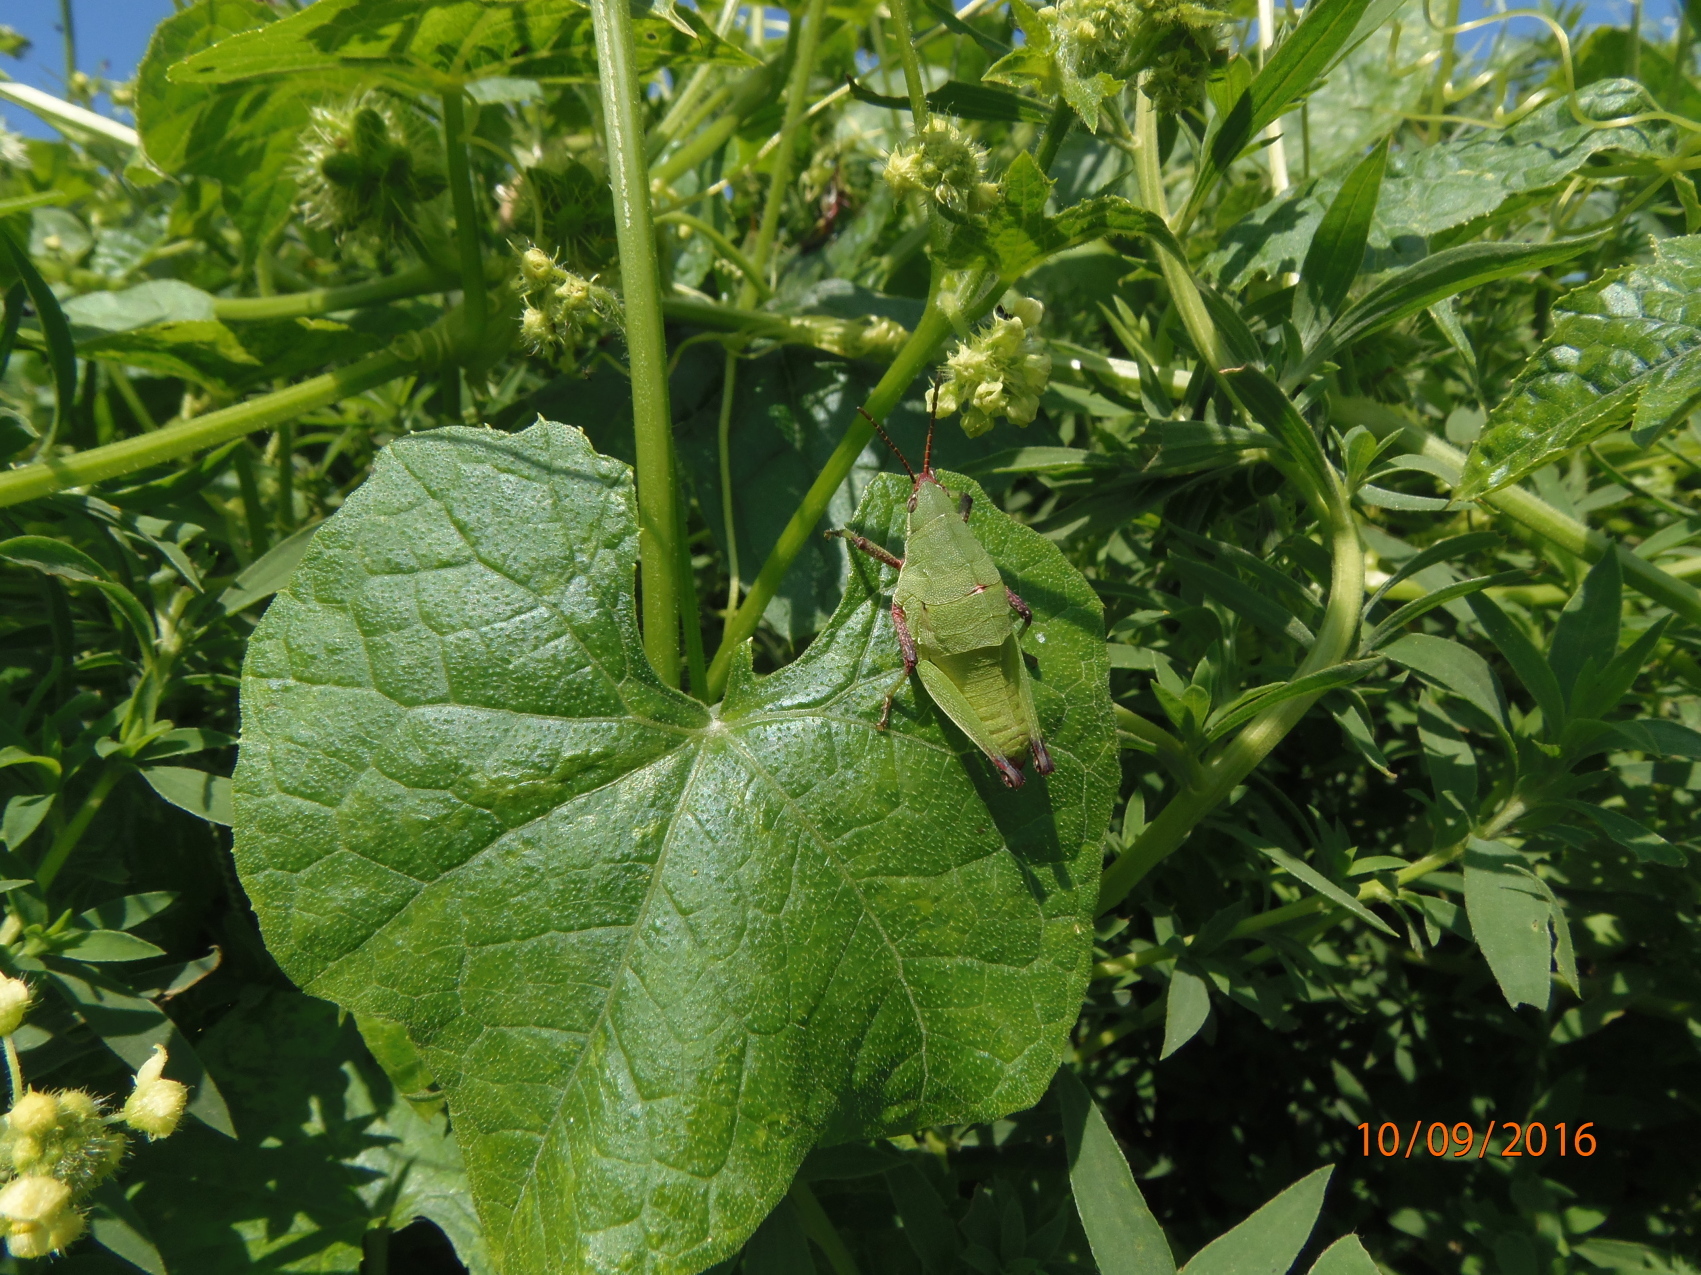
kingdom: Animalia
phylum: Arthropoda
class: Insecta
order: Orthoptera
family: Pyrgomorphidae
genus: Sphenarium
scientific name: Sphenarium purpurascens
